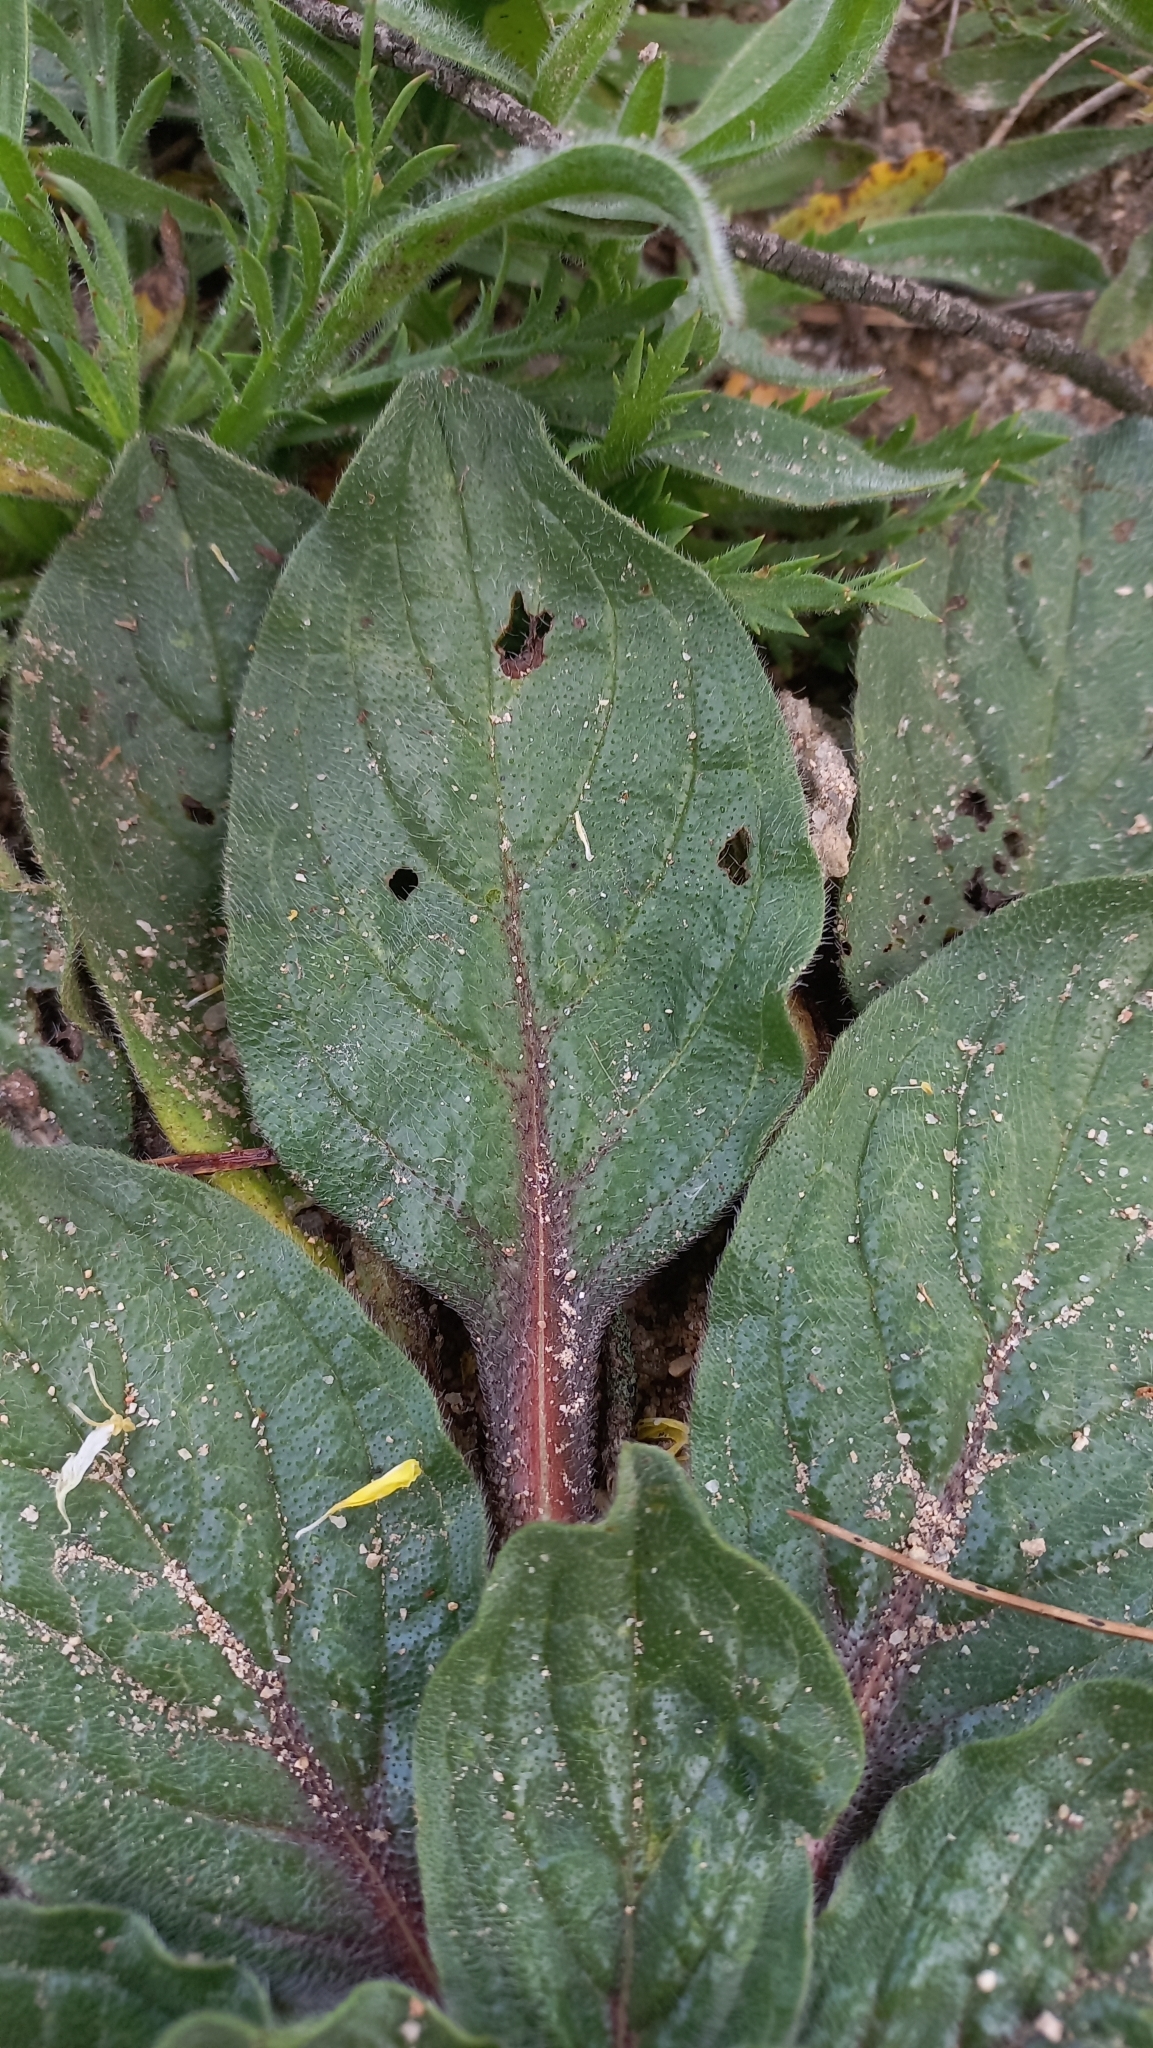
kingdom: Plantae
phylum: Tracheophyta
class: Magnoliopsida
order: Boraginales
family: Boraginaceae
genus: Echium
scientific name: Echium plantagineum
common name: Purple viper's-bugloss
